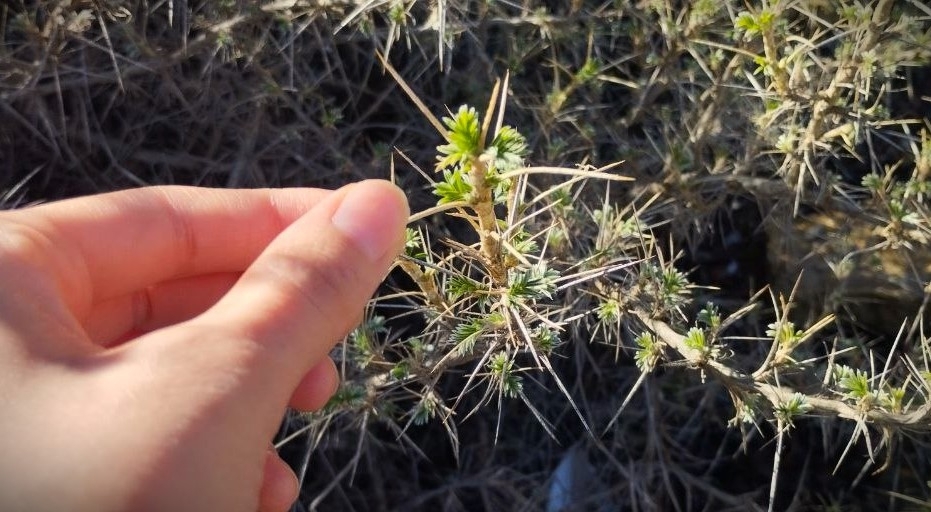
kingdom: Plantae
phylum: Tracheophyta
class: Magnoliopsida
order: Fabales
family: Fabaceae
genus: Astragalus
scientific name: Astragalus armatus
